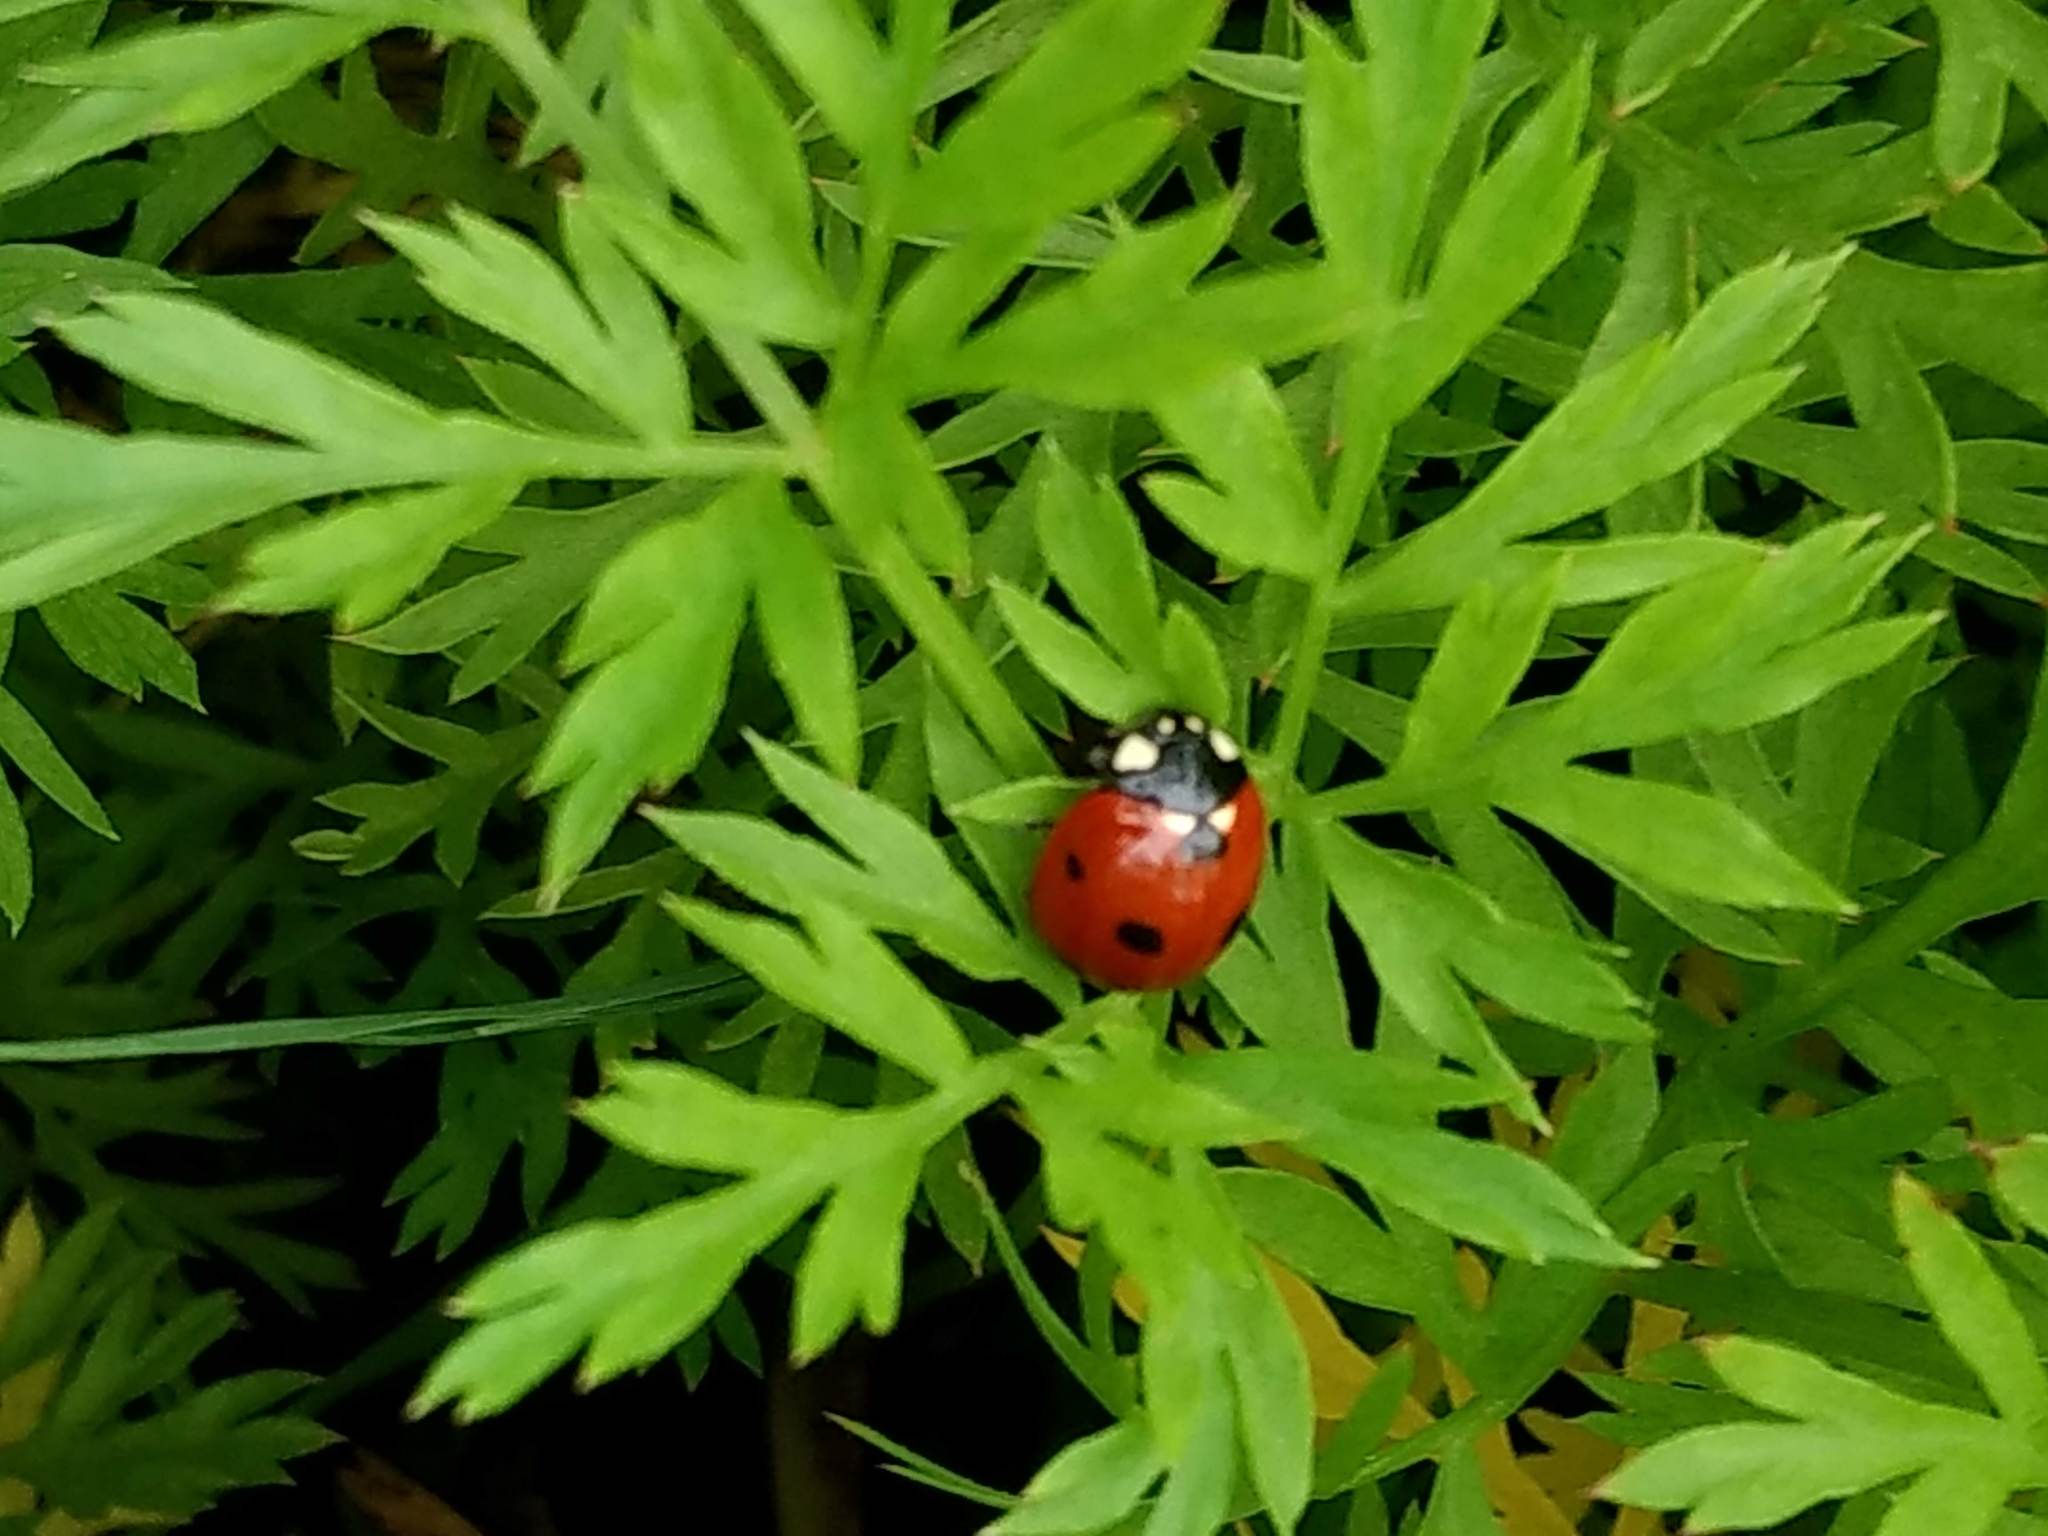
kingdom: Animalia
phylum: Arthropoda
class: Insecta
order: Coleoptera
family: Coccinellidae
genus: Coccinella
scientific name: Coccinella septempunctata
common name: Sevenspotted lady beetle
